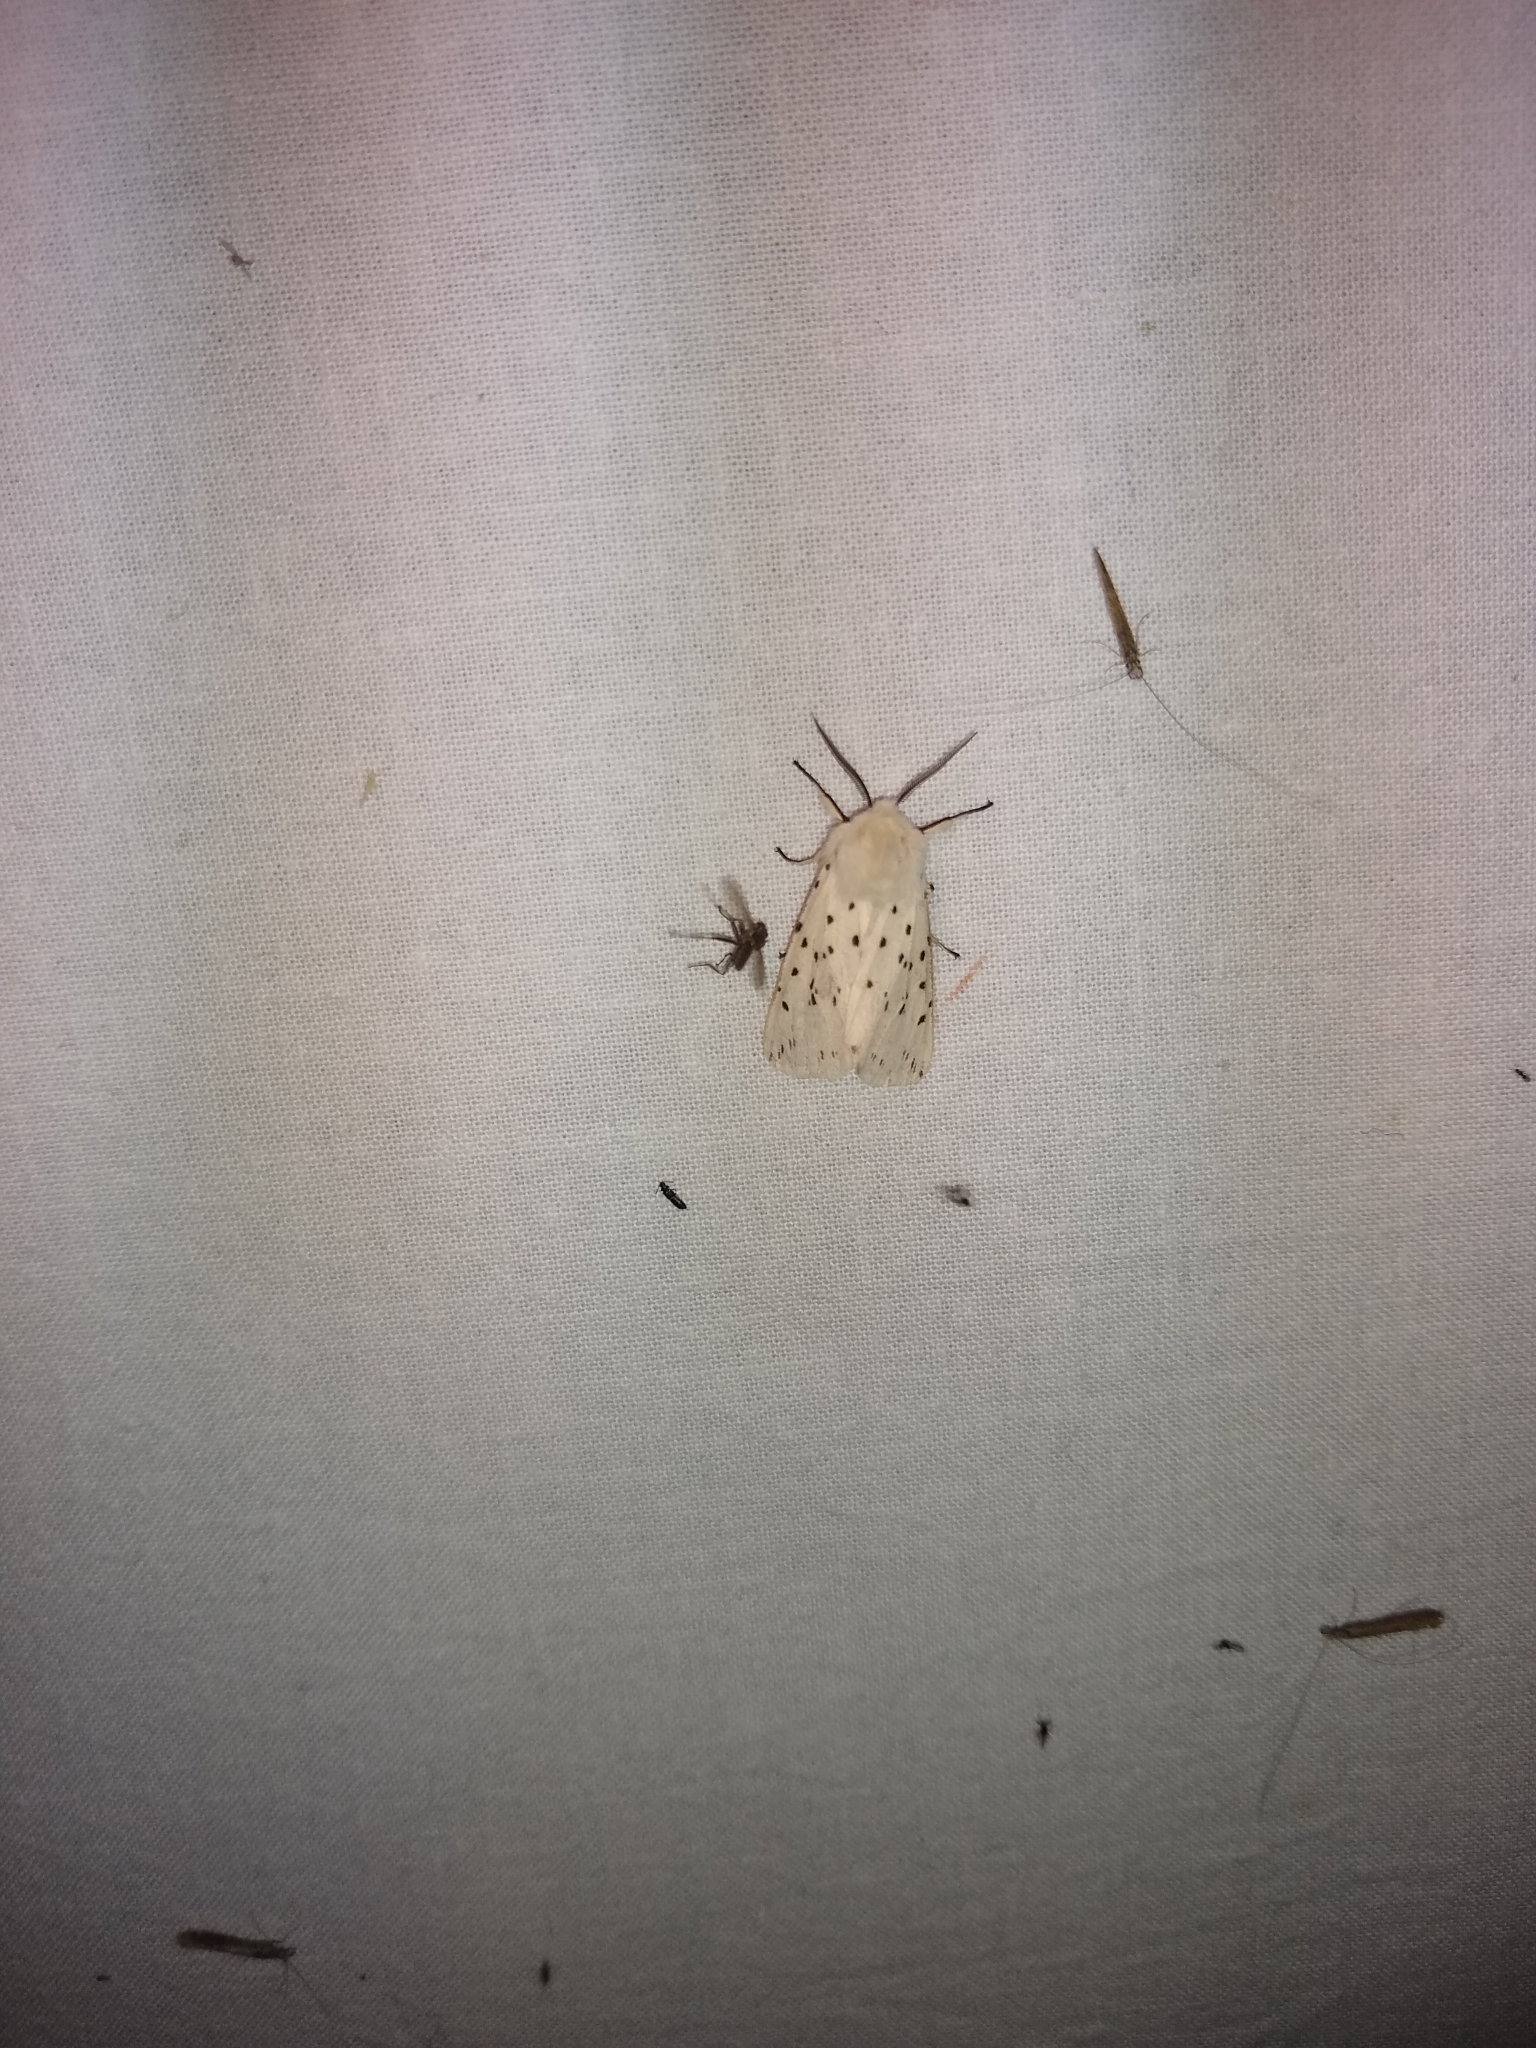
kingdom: Animalia
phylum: Arthropoda
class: Insecta
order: Lepidoptera
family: Erebidae
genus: Spilosoma
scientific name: Spilosoma lubricipeda
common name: White ermine
